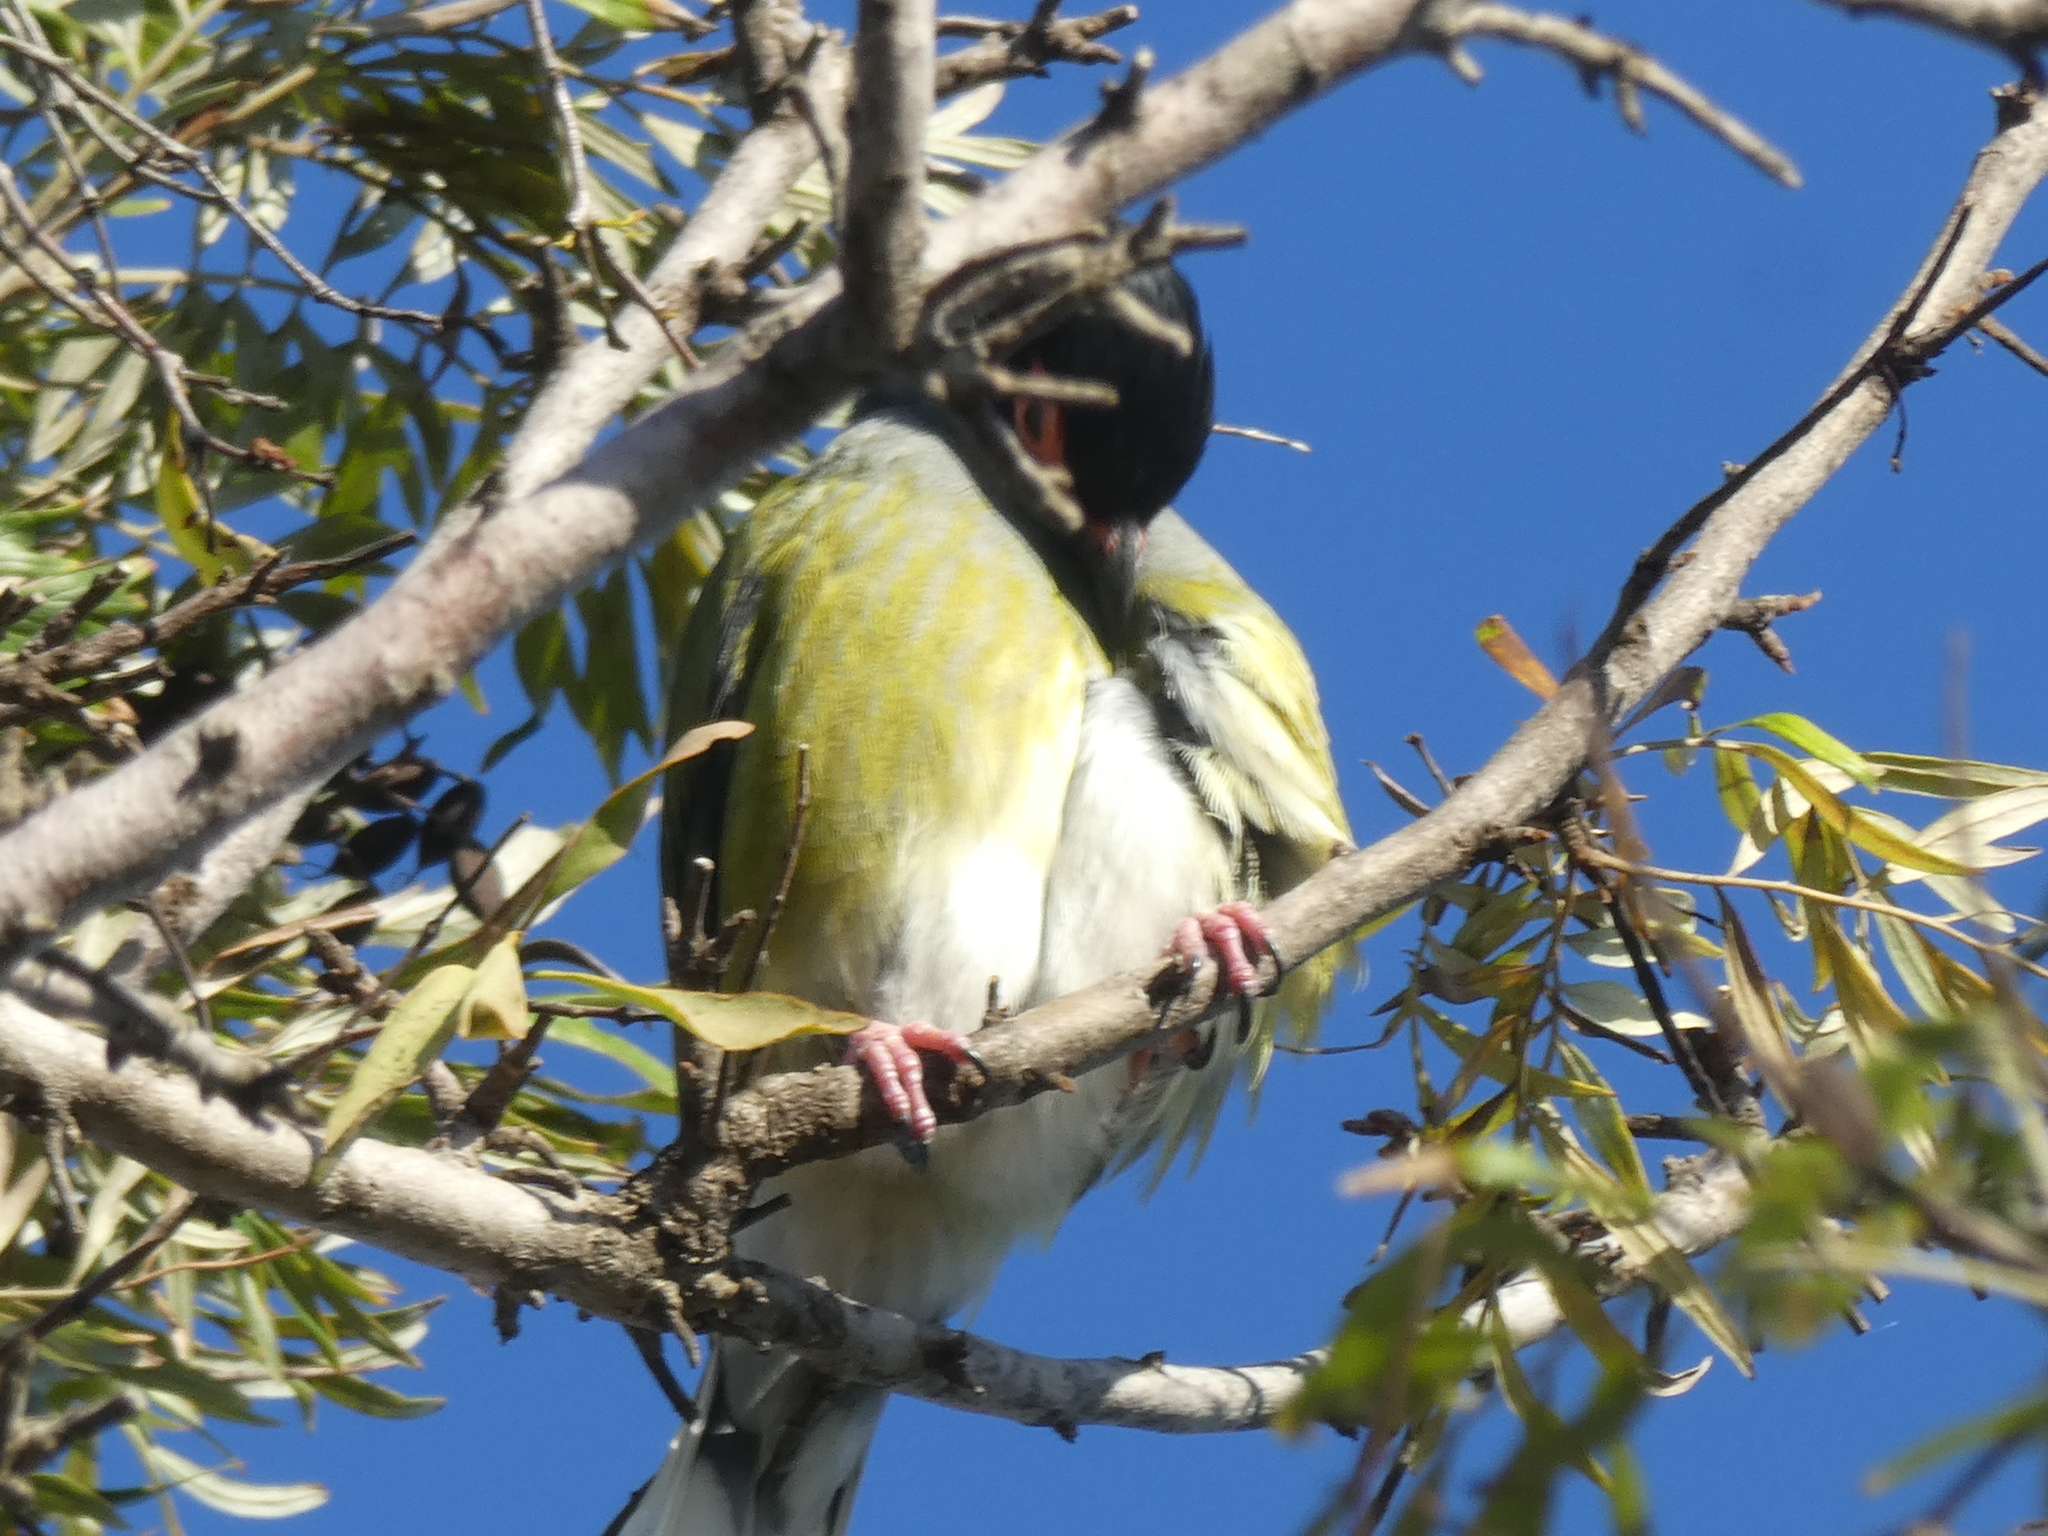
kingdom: Animalia
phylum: Chordata
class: Aves
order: Passeriformes
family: Oriolidae
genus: Sphecotheres
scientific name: Sphecotheres vieilloti
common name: Australasian figbird
